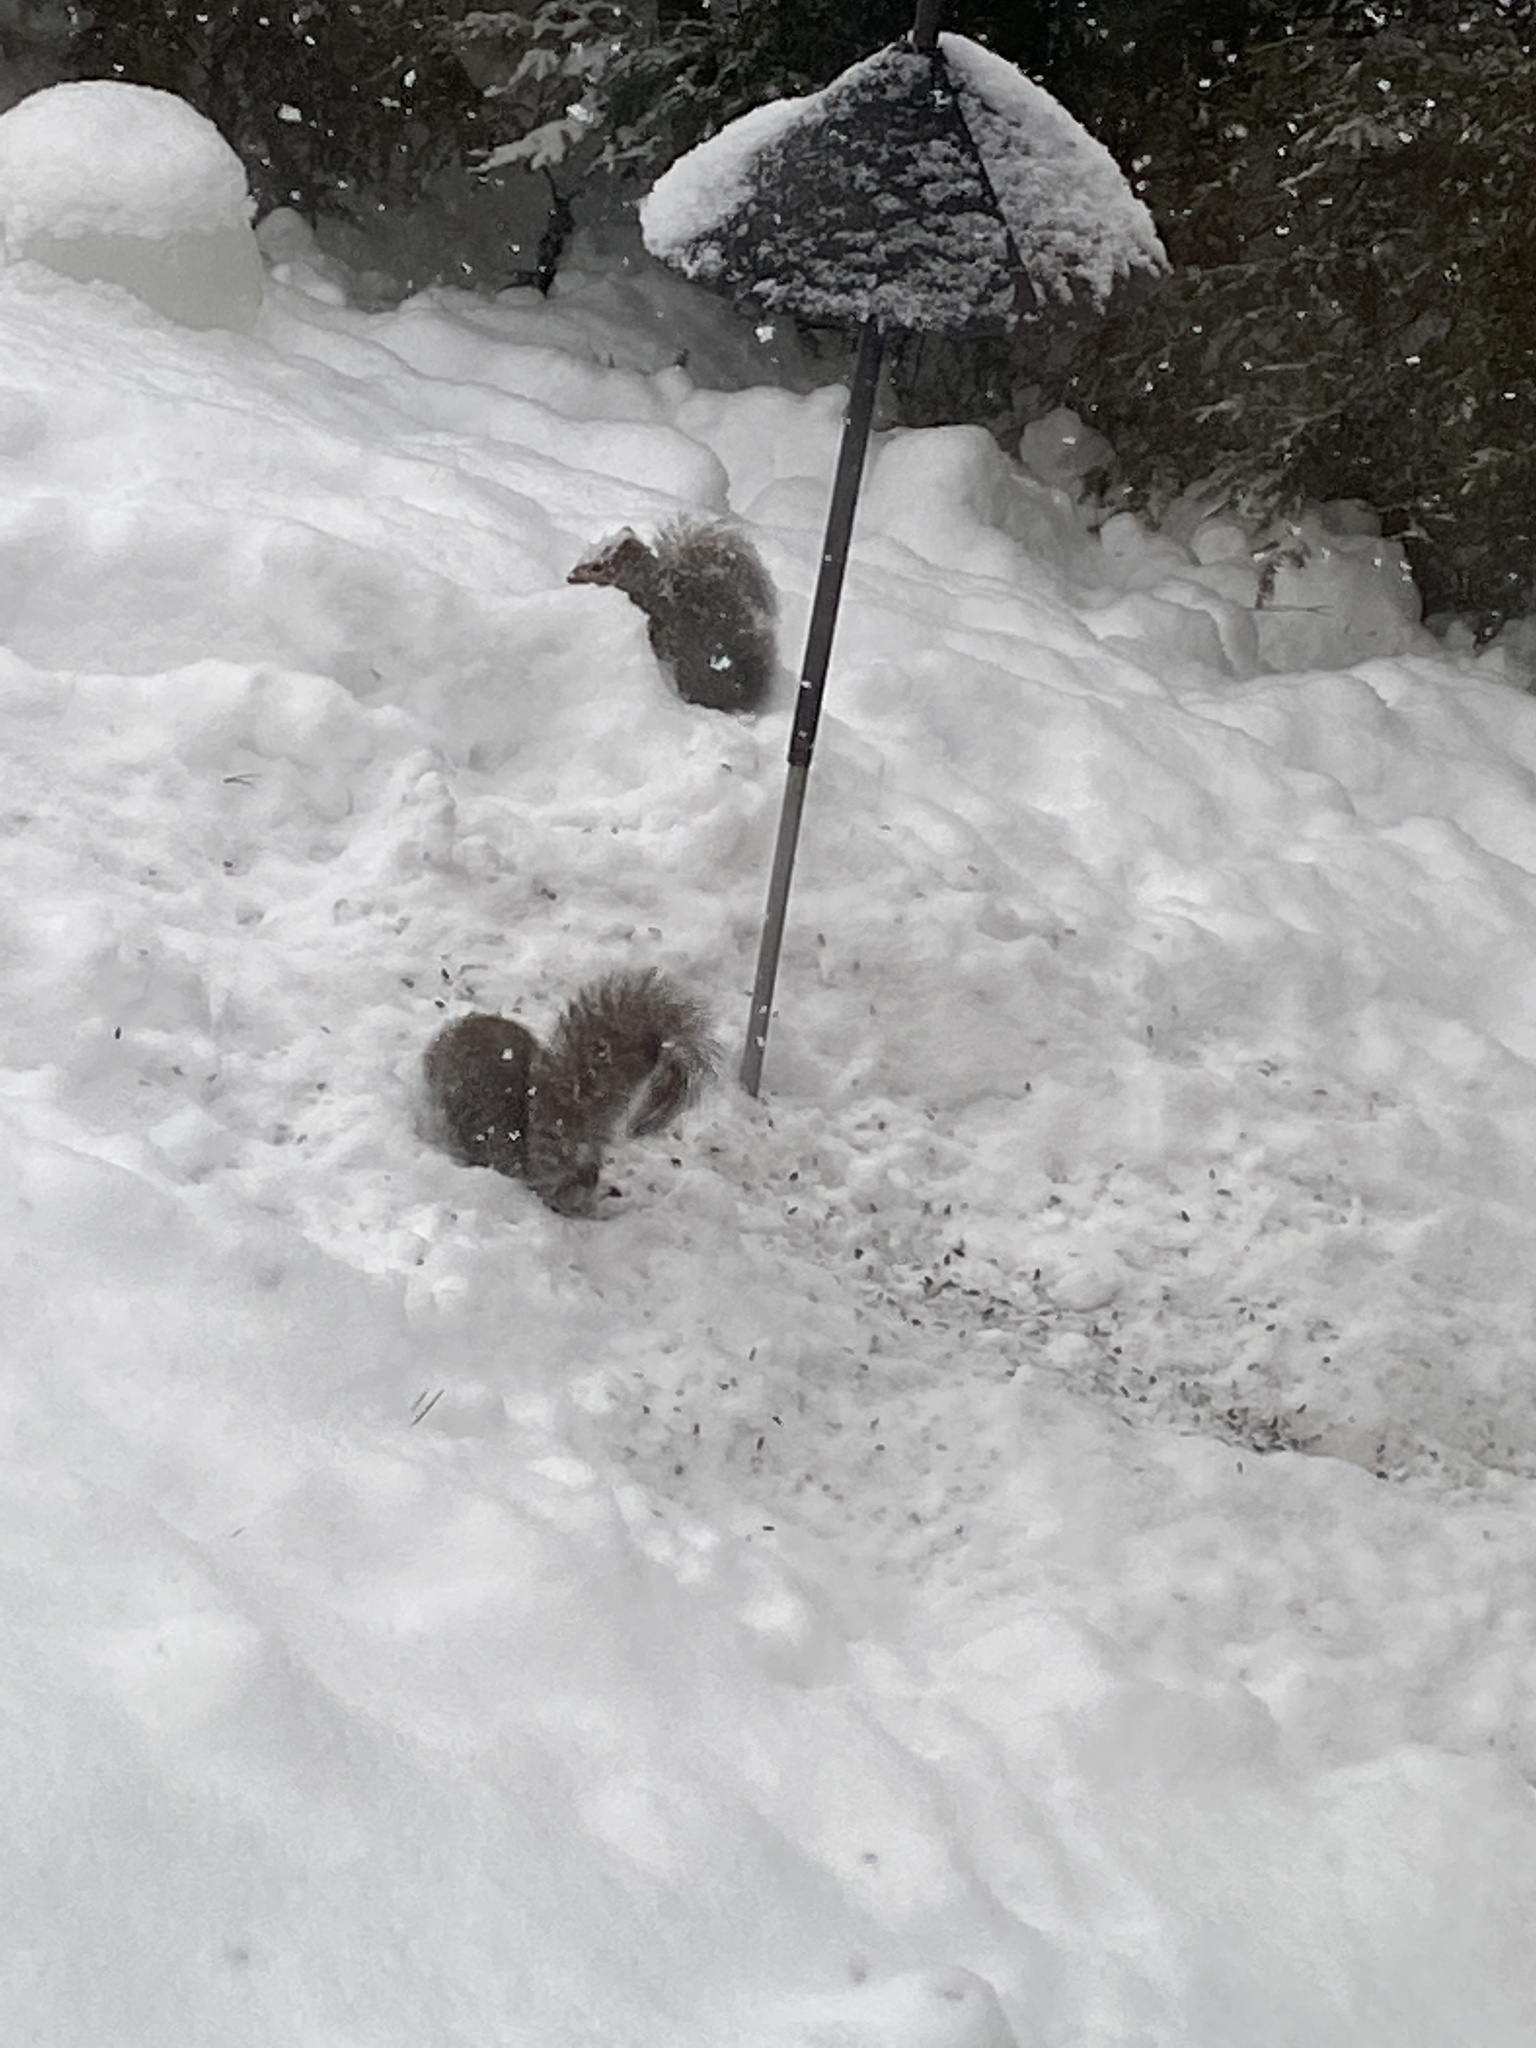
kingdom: Animalia
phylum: Chordata
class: Mammalia
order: Rodentia
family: Sciuridae
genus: Sciurus
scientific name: Sciurus carolinensis
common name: Eastern gray squirrel
